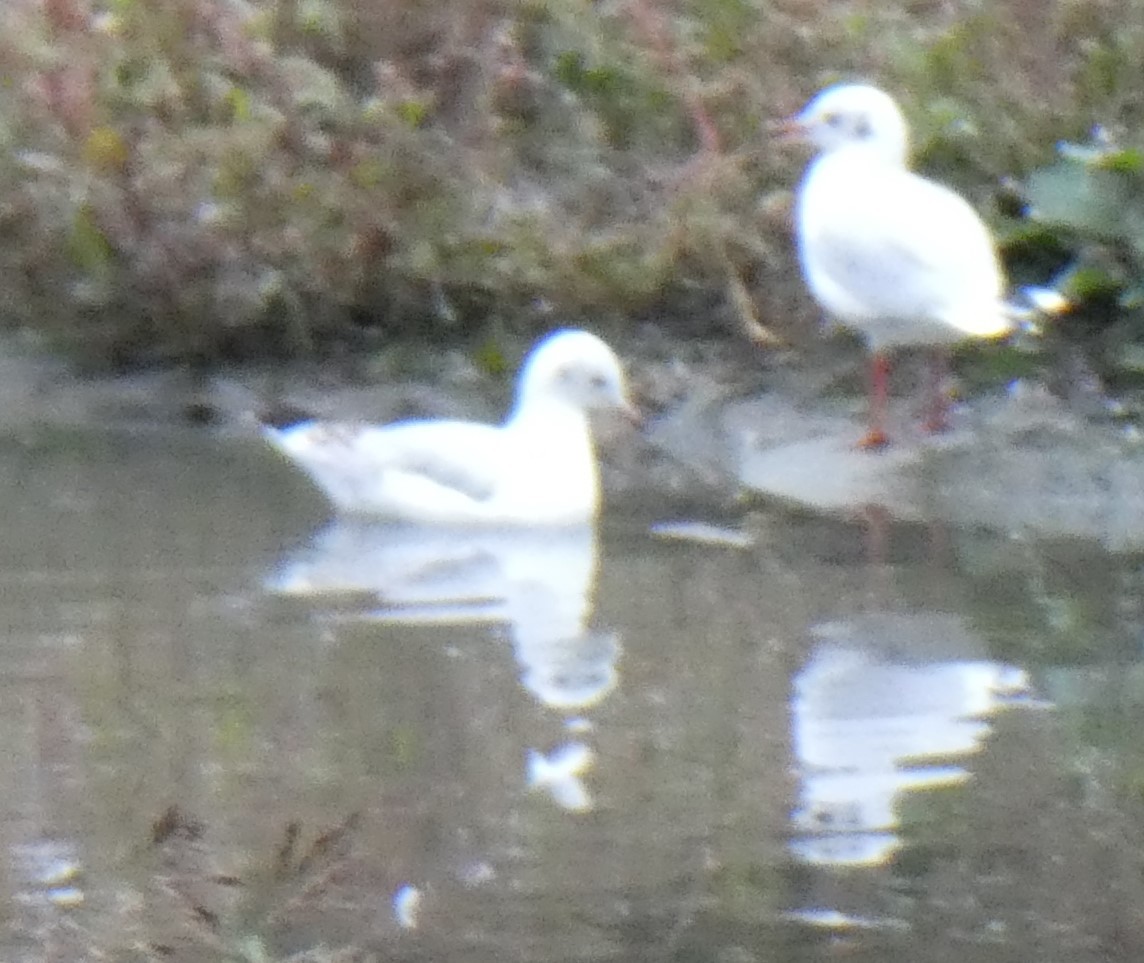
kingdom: Animalia
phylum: Chordata
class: Aves
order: Charadriiformes
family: Laridae
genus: Chroicocephalus
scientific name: Chroicocephalus ridibundus
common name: Black-headed gull
